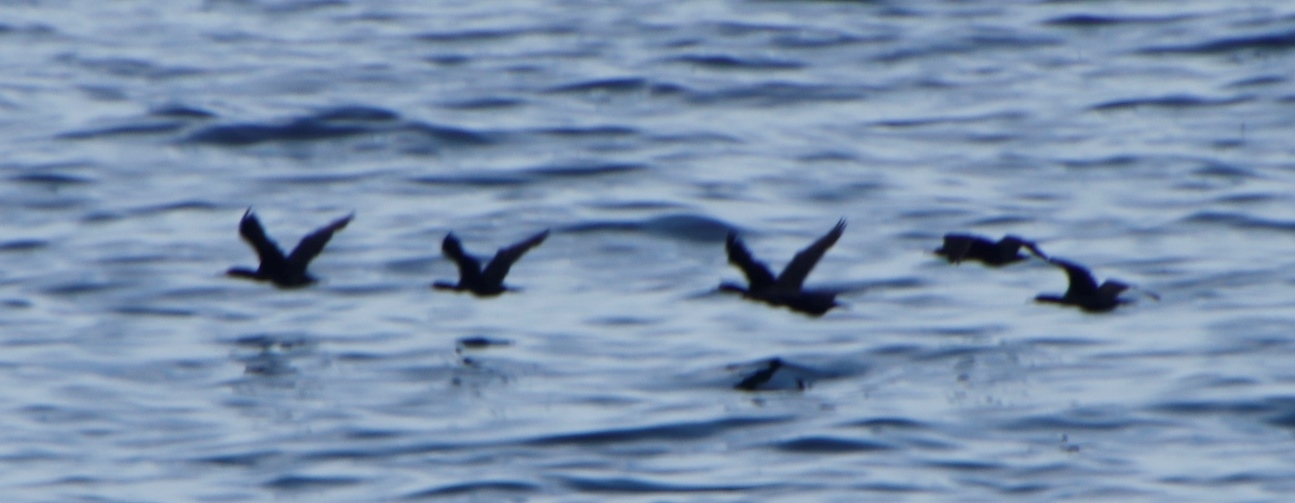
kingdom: Animalia
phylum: Chordata
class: Aves
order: Suliformes
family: Phalacrocoracidae
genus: Phalacrocorax
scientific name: Phalacrocorax capensis
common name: Cape cormorant
